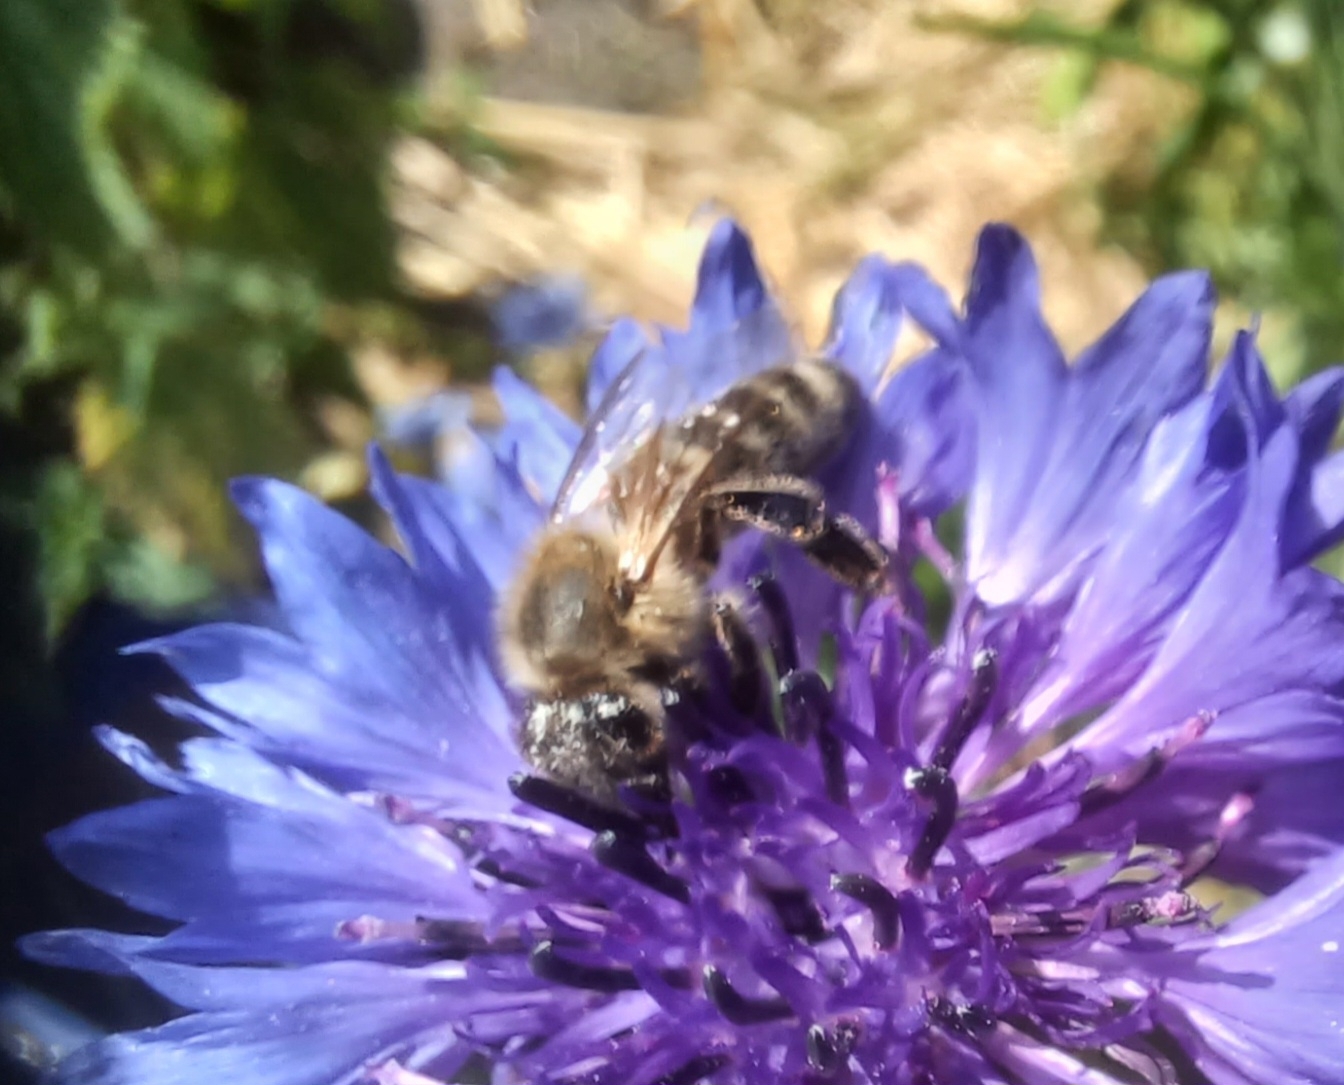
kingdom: Animalia
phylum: Arthropoda
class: Insecta
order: Hymenoptera
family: Apidae
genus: Apis
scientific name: Apis mellifera
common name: Honey bee
